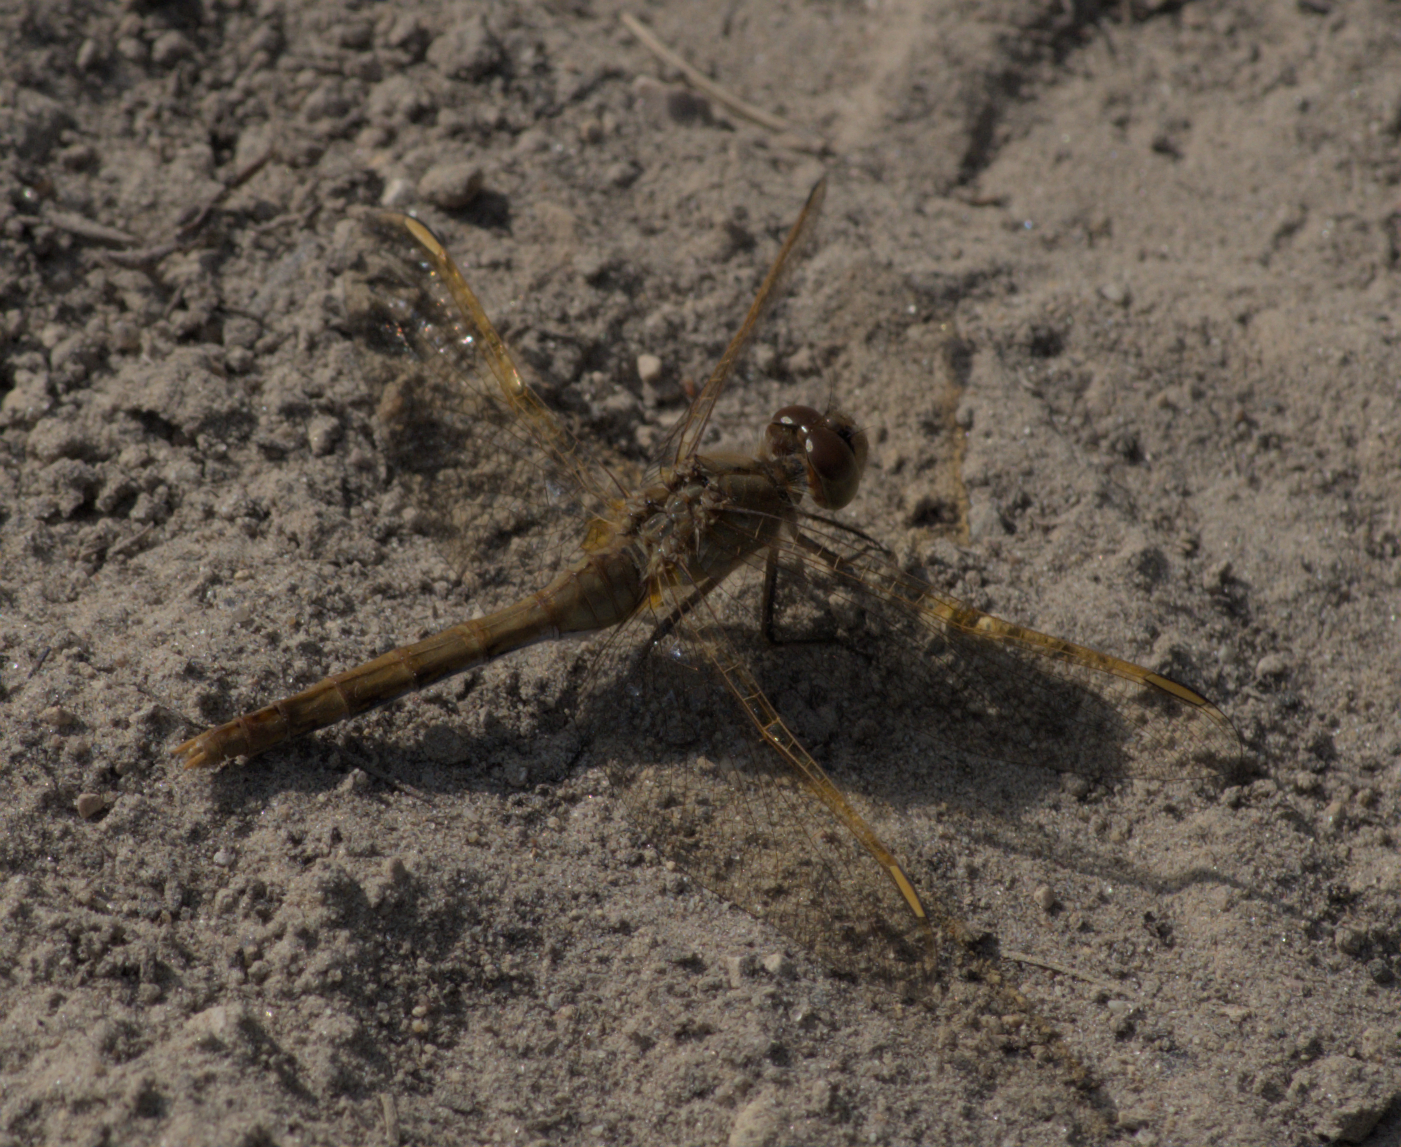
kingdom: Animalia
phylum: Arthropoda
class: Insecta
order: Odonata
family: Libellulidae
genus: Sympetrum
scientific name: Sympetrum costiferum
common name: Saffron-winged meadowhawk
